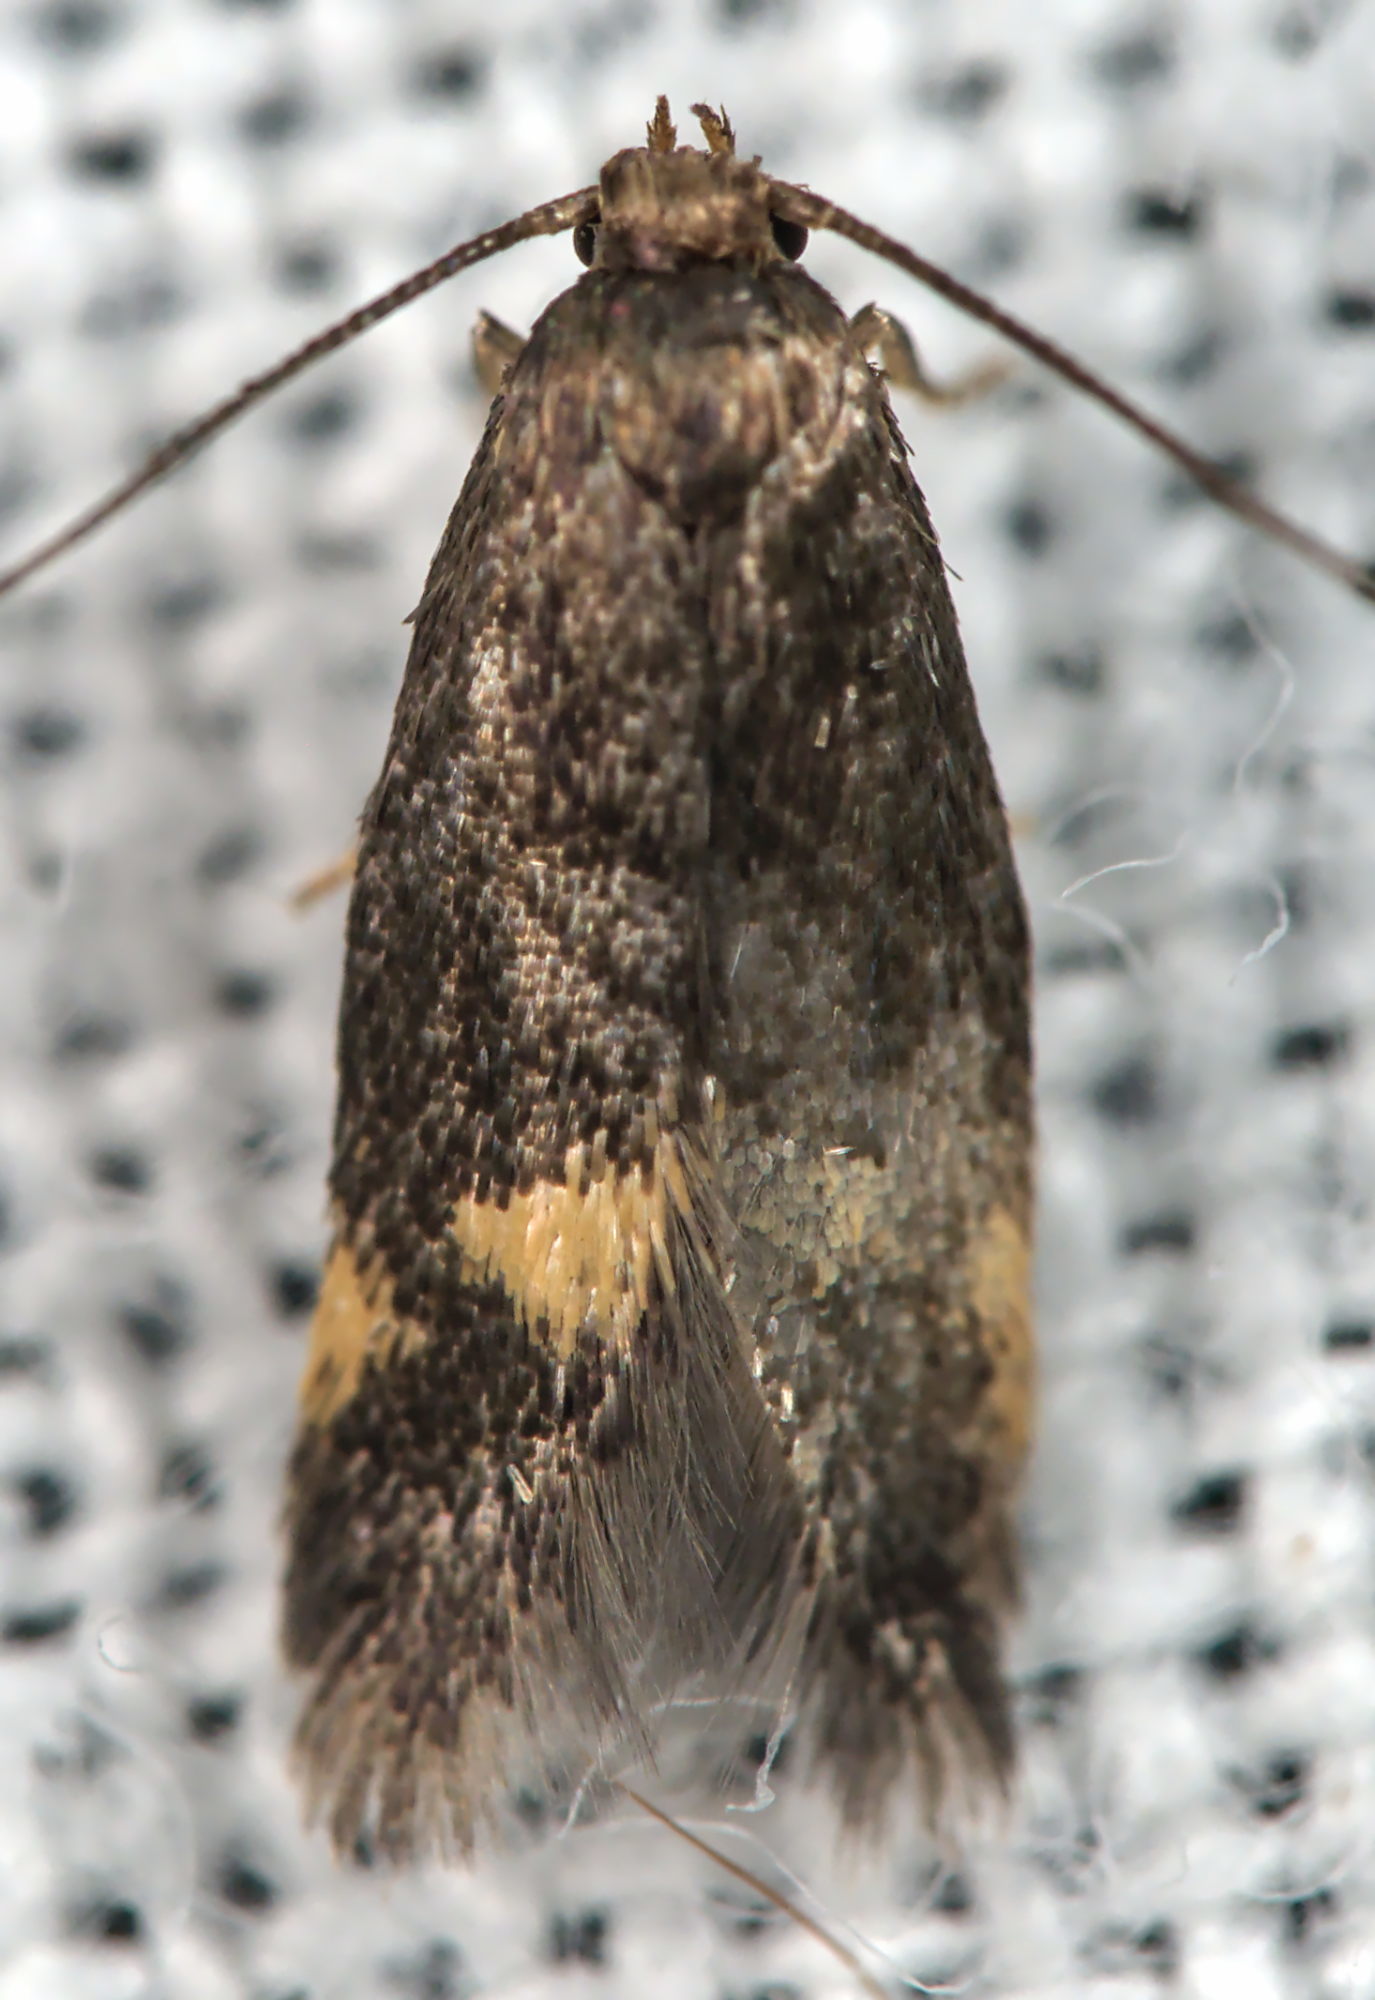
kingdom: Animalia
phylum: Arthropoda
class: Insecta
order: Lepidoptera
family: Oecophoridae
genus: Borkhausenia
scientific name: Borkhausenia minutella
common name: Thatch tubic
